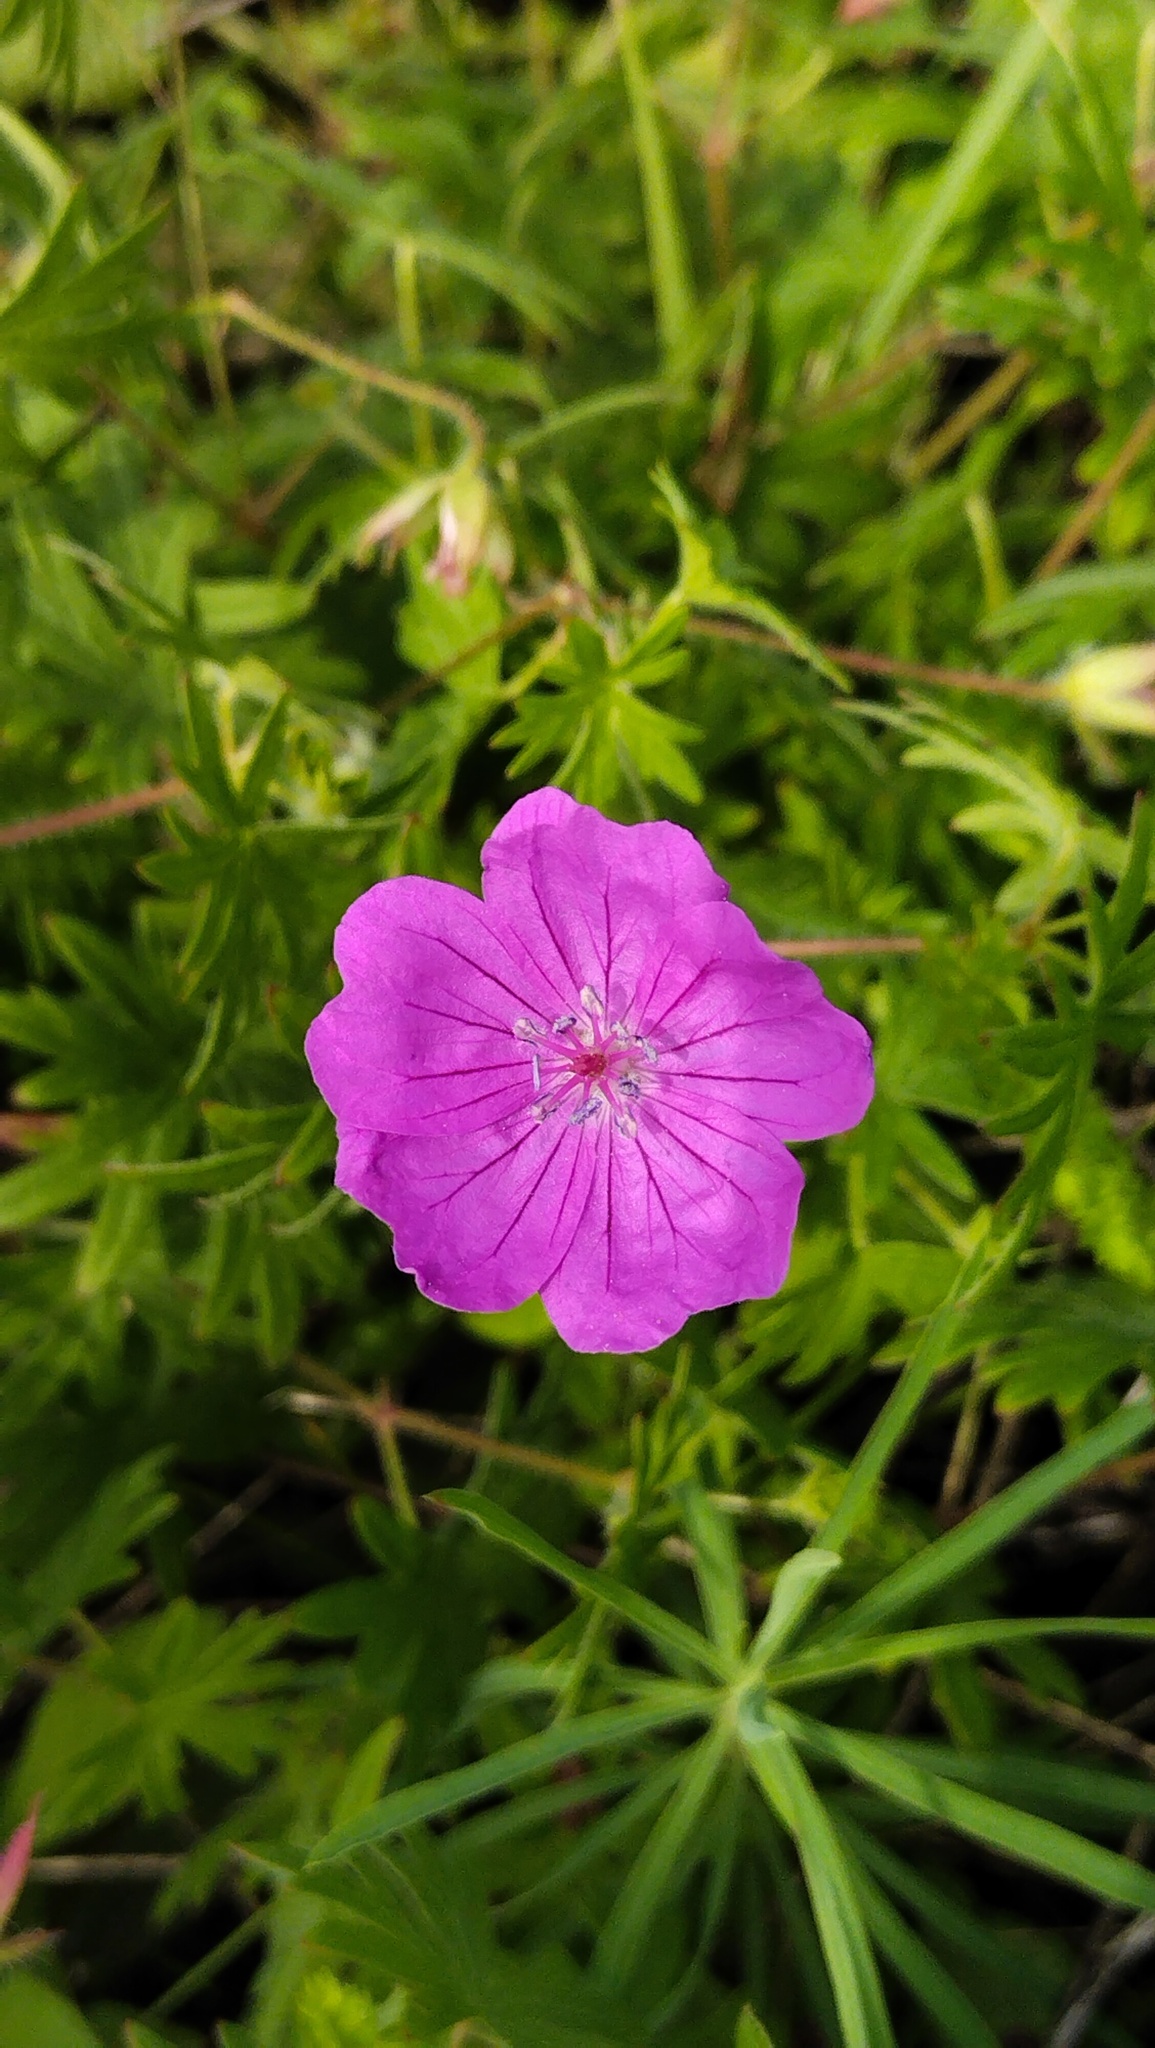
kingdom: Plantae
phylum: Tracheophyta
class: Magnoliopsida
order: Geraniales
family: Geraniaceae
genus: Geranium
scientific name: Geranium sanguineum
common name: Bloody crane's-bill
